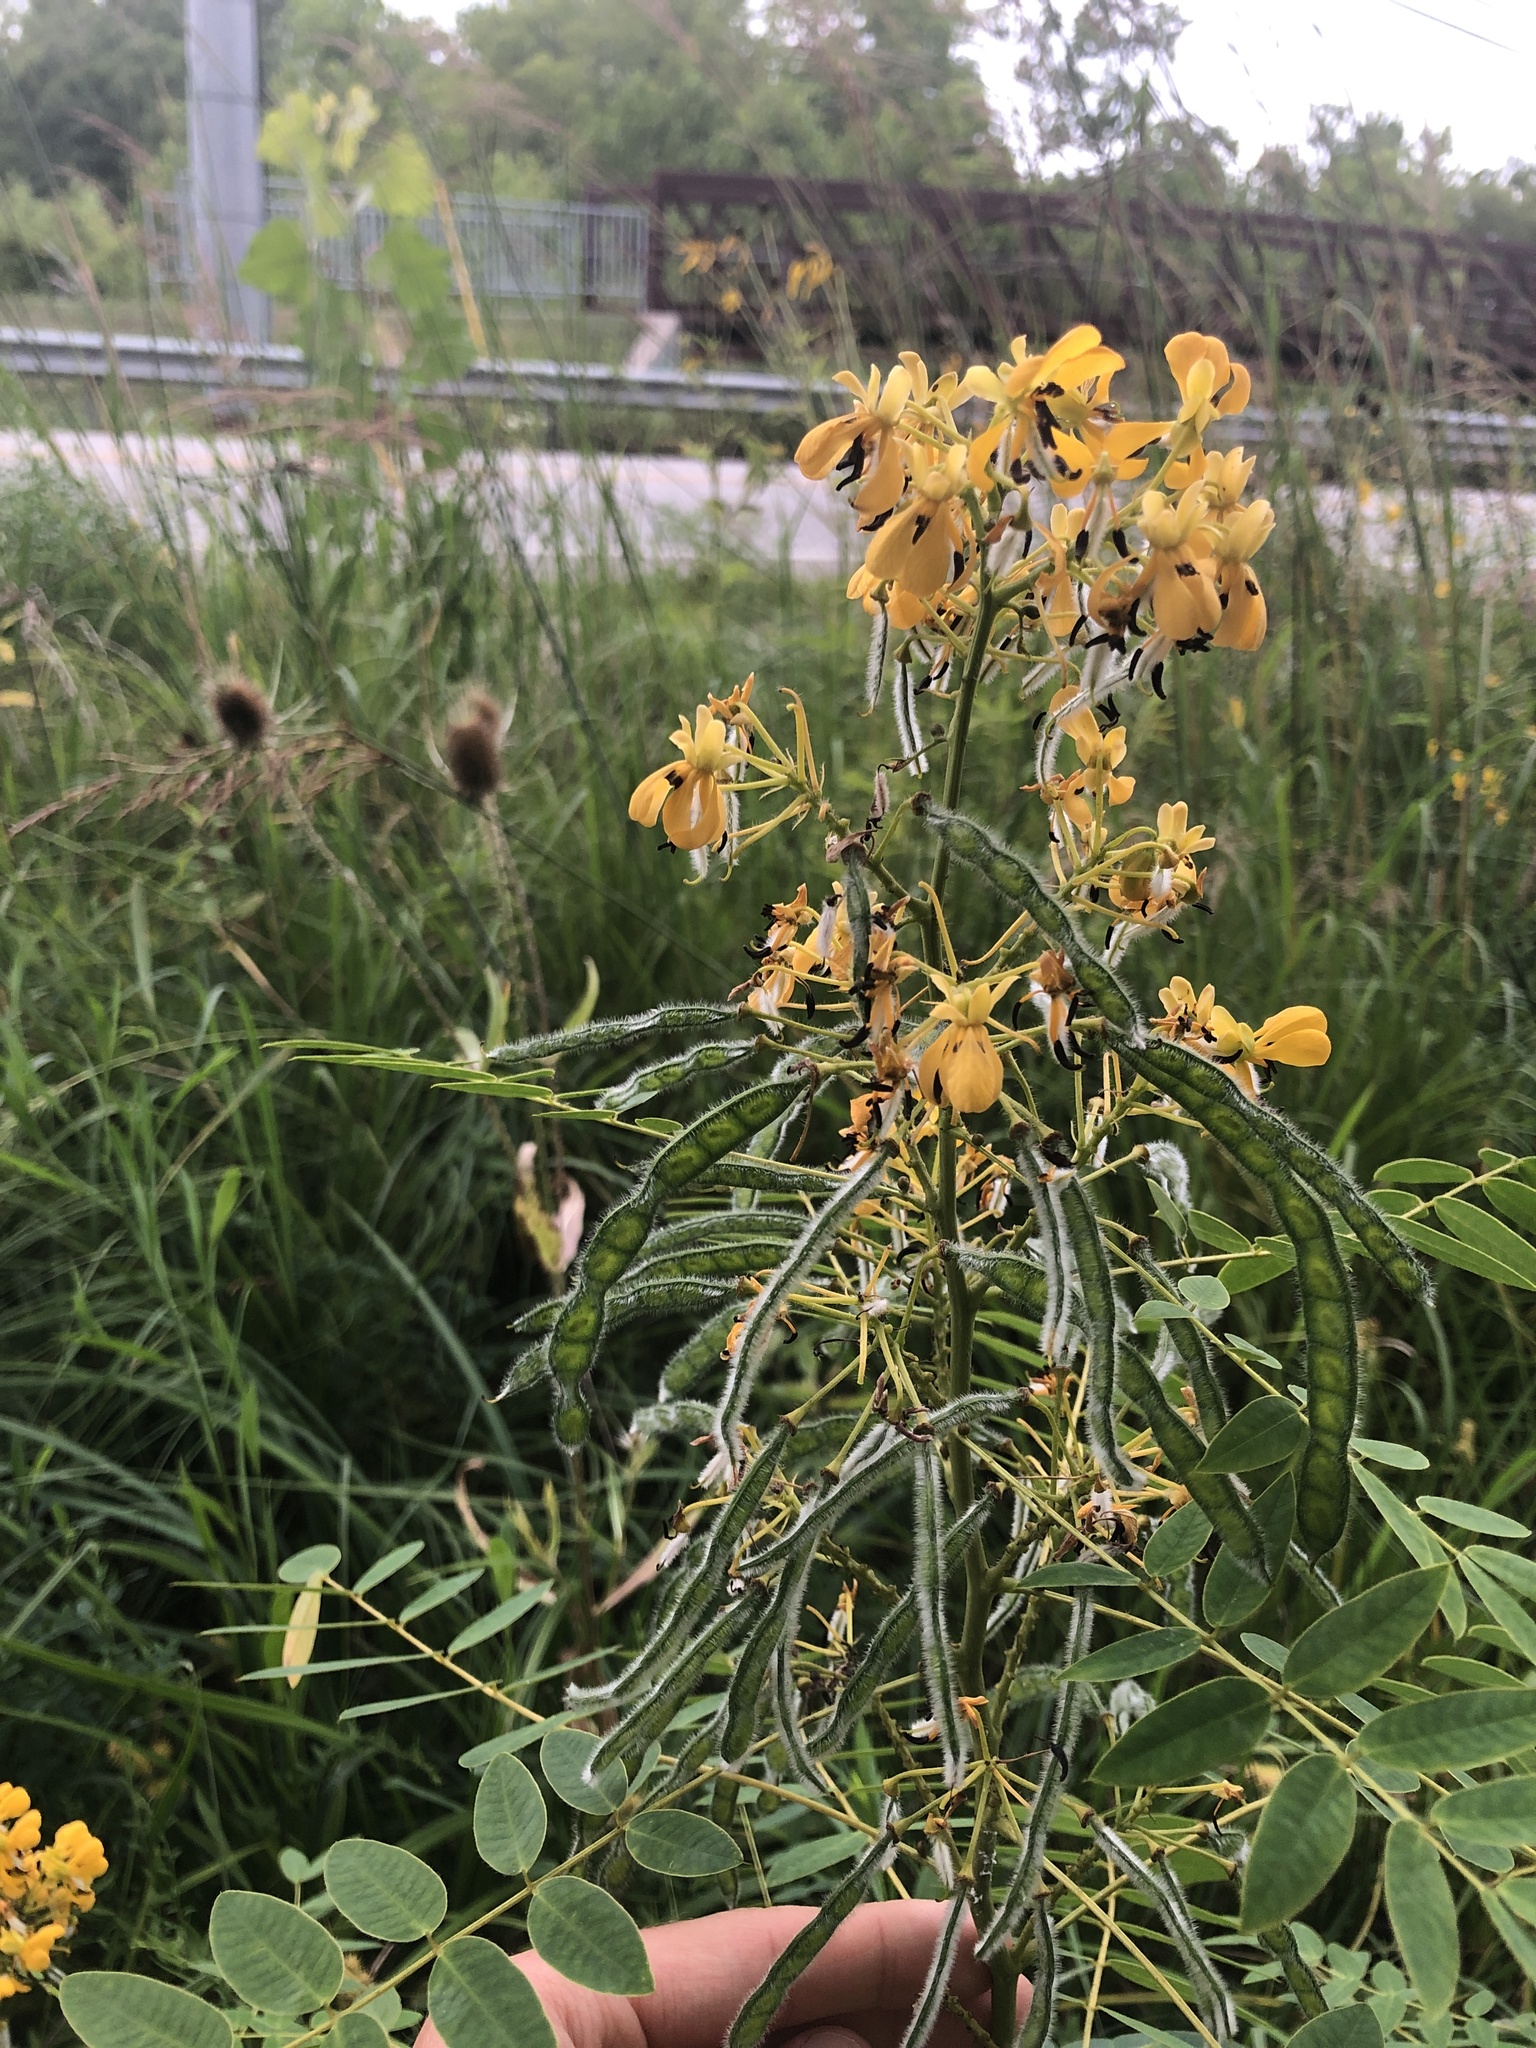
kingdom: Plantae
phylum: Tracheophyta
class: Magnoliopsida
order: Fabales
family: Fabaceae
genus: Senna
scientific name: Senna hebecarpa
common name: Wild senna
